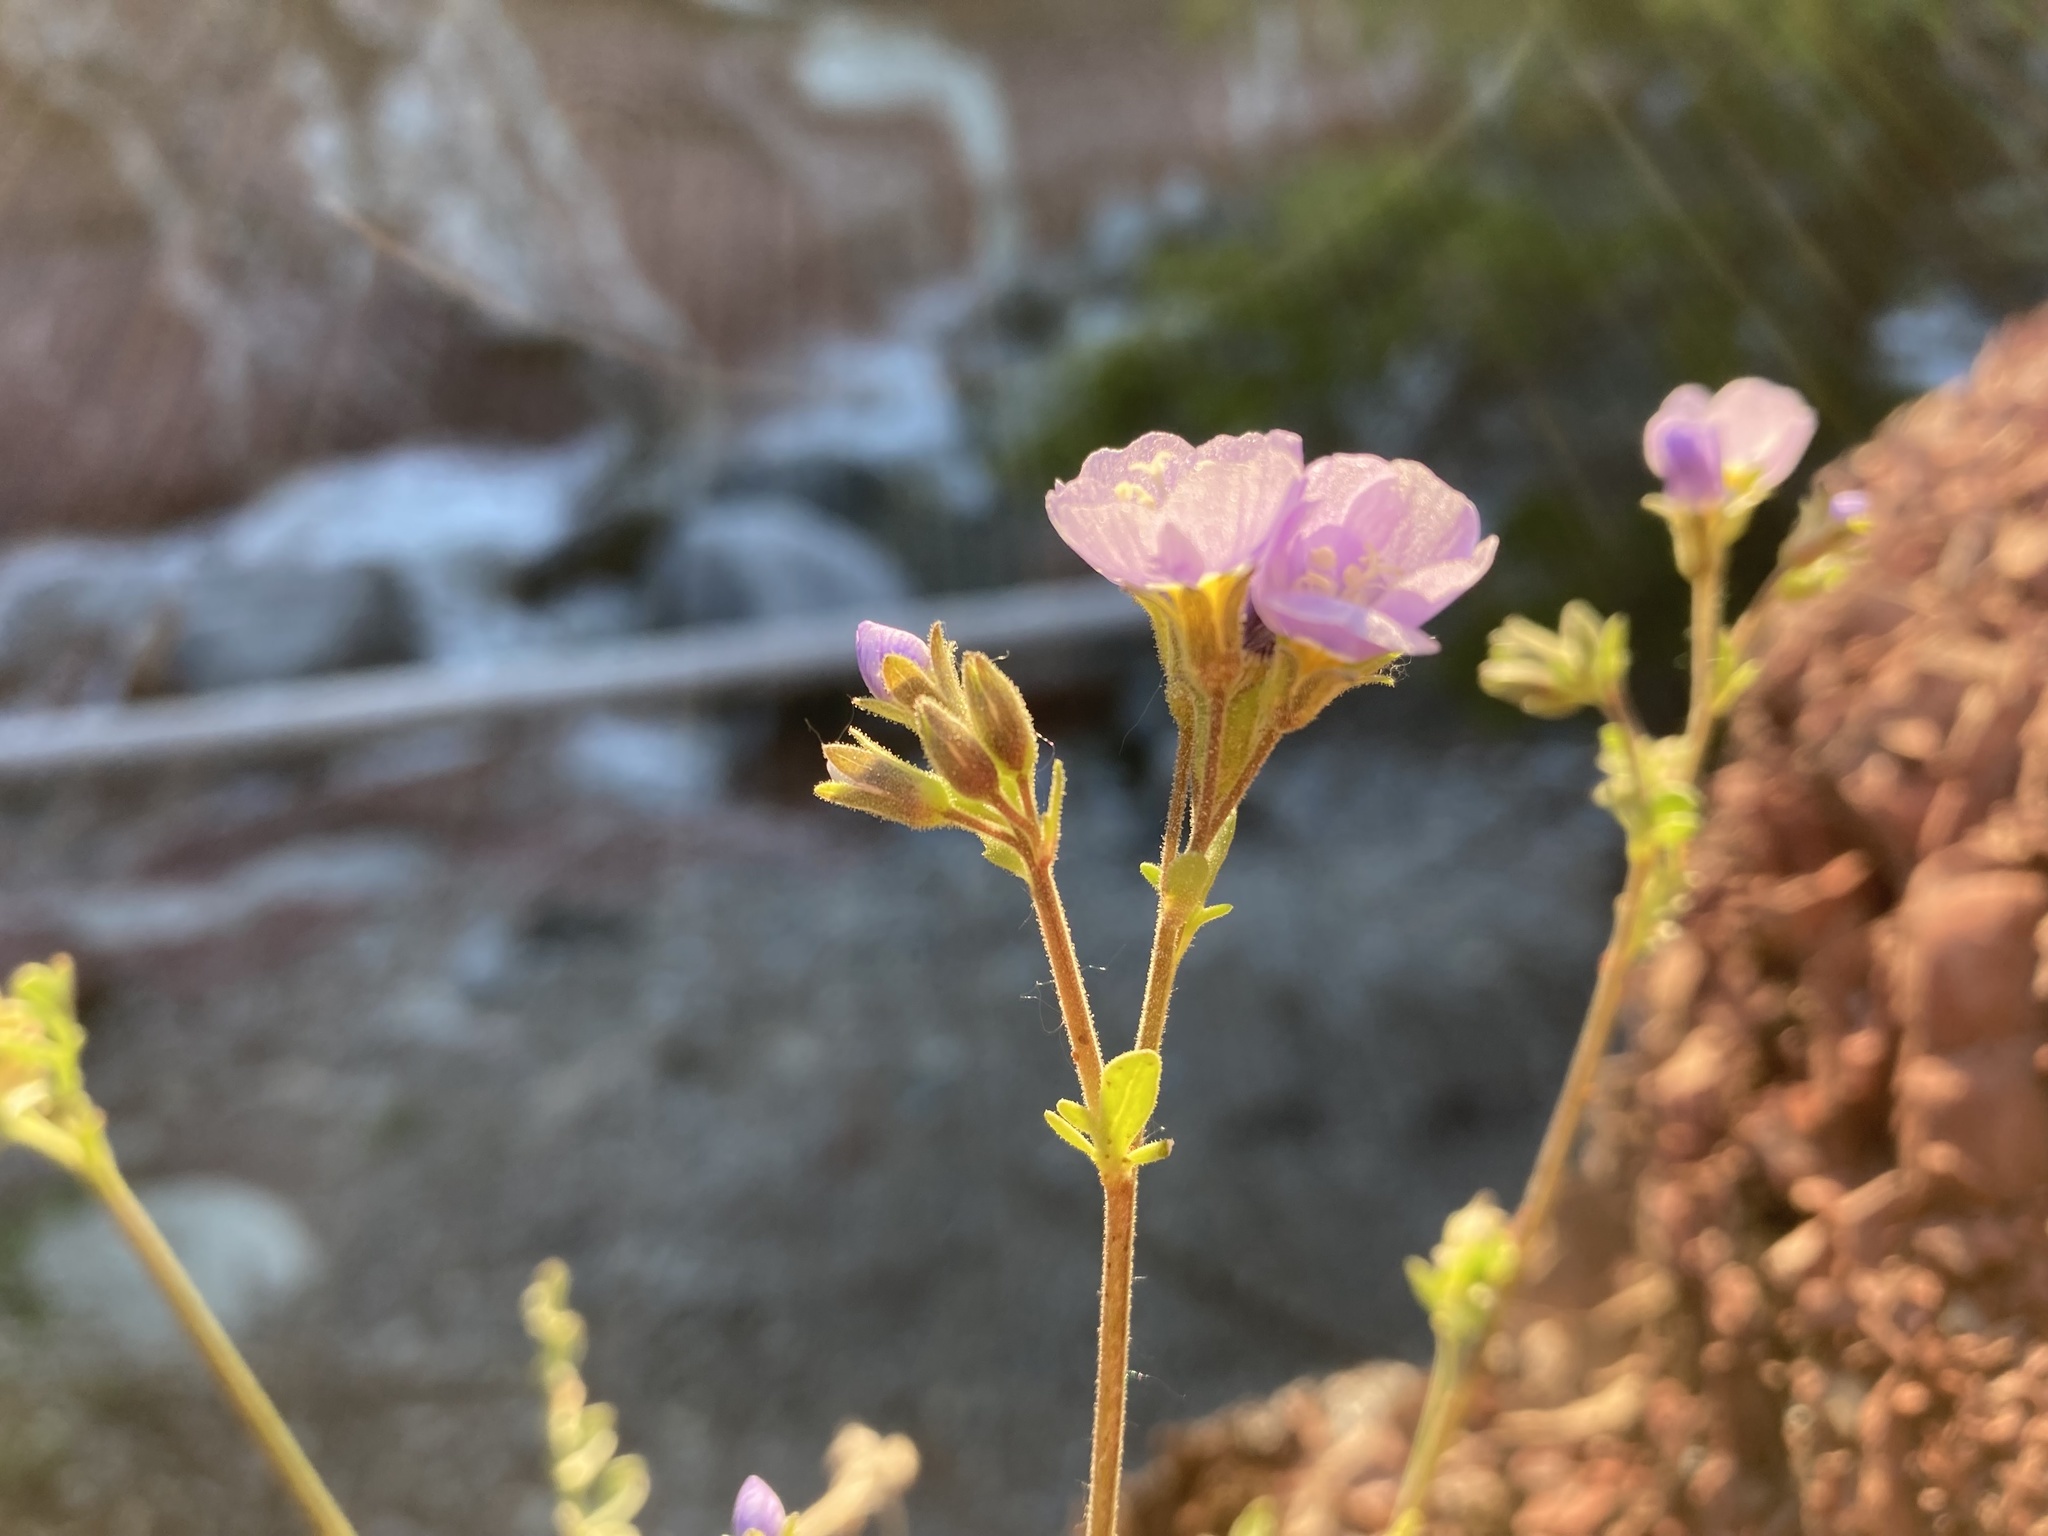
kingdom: Plantae
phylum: Tracheophyta
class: Magnoliopsida
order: Ericales
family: Polemoniaceae
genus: Polemonium
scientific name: Polemonium pulcherrimum
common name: Short jacob's-ladder
